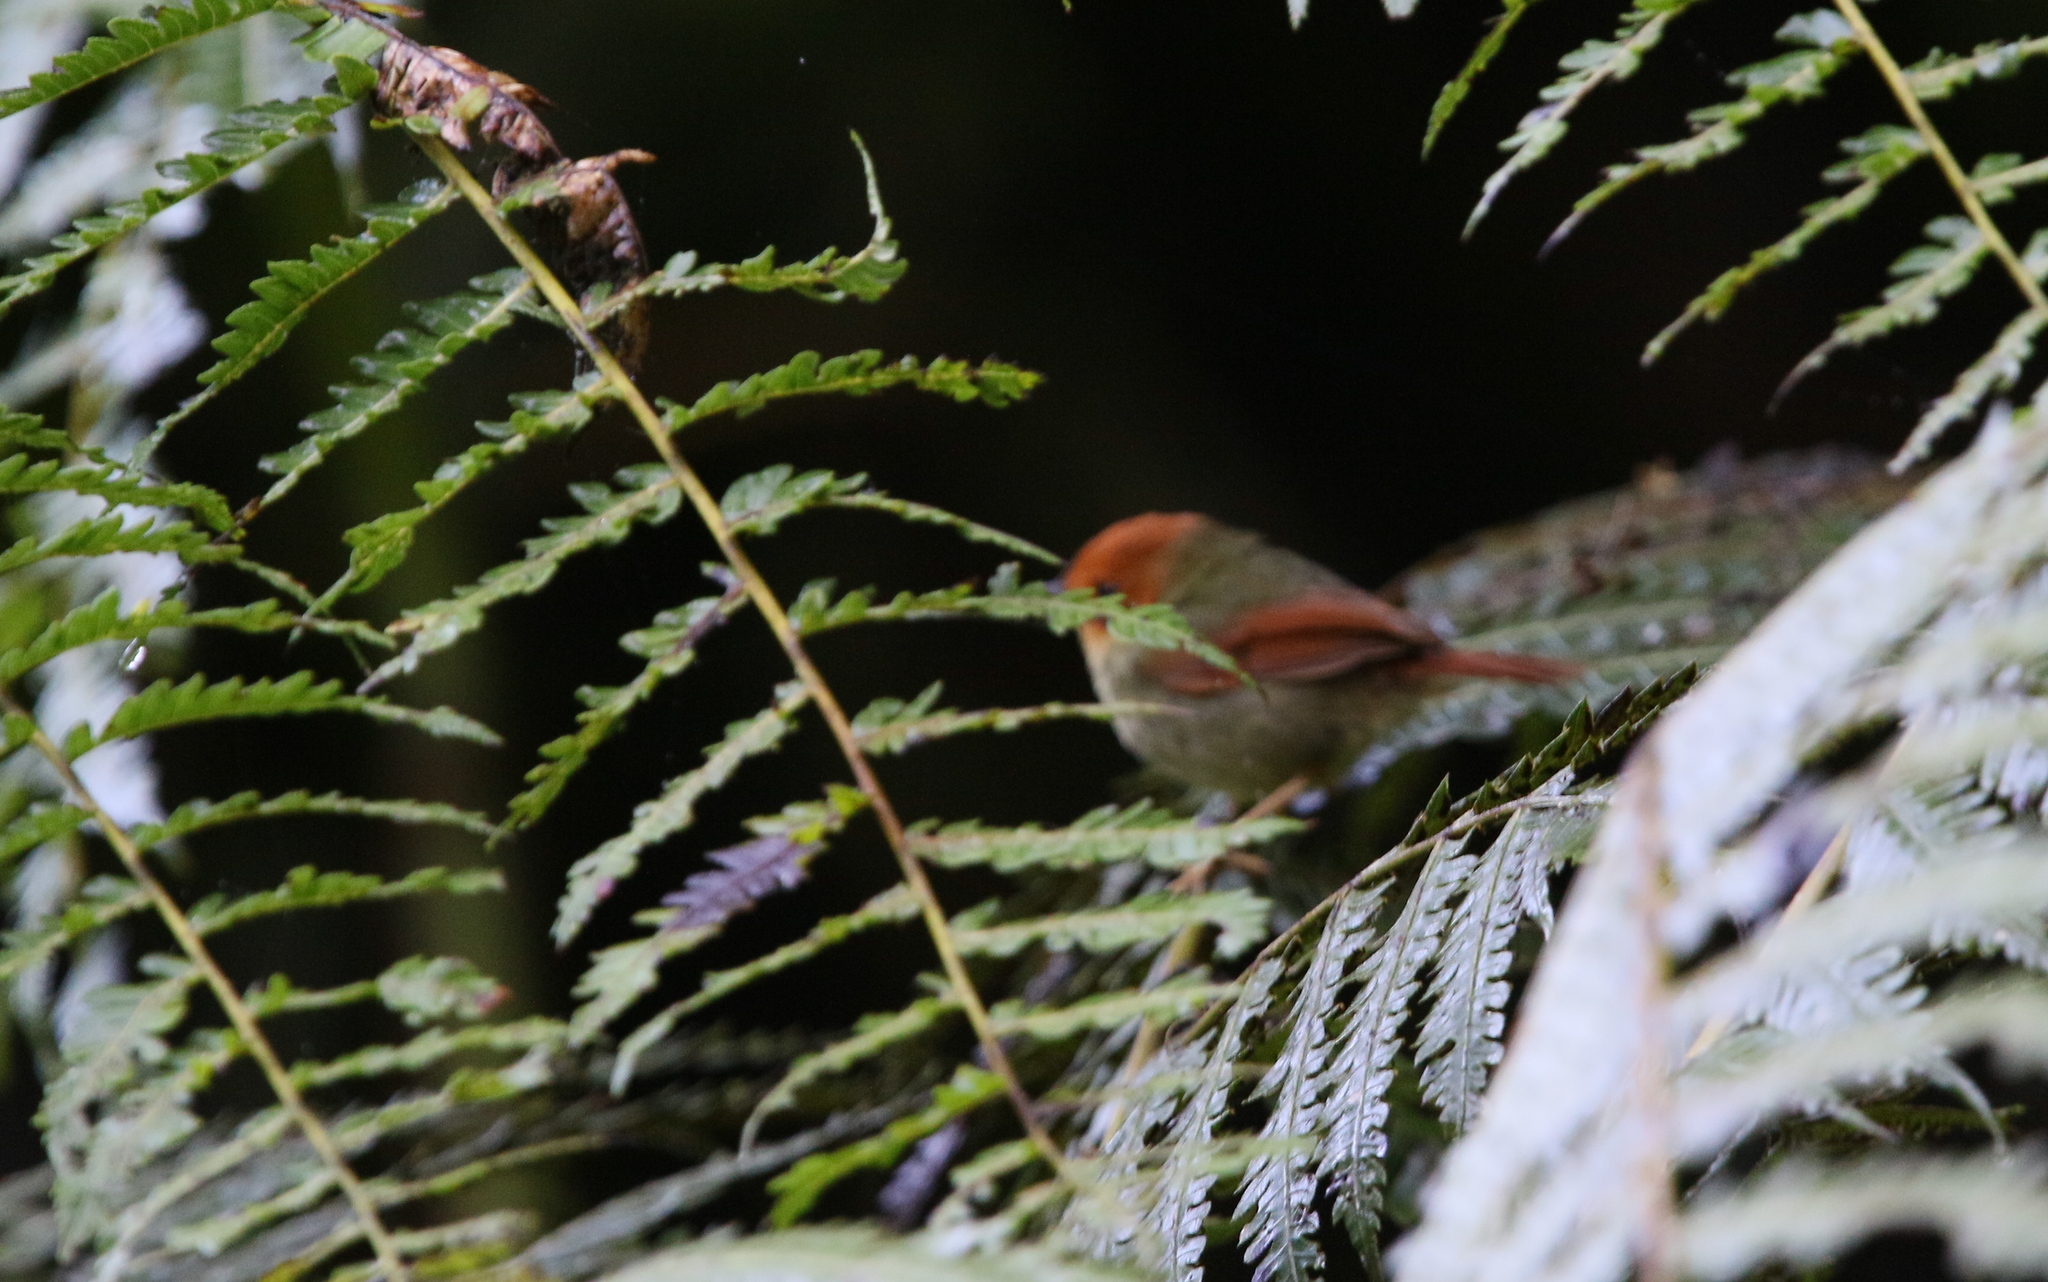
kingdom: Animalia
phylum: Chordata
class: Aves
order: Passeriformes
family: Tyrannidae
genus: Pseudotriccus
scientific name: Pseudotriccus ruficeps
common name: Rufous-headed pygmy tyrant
